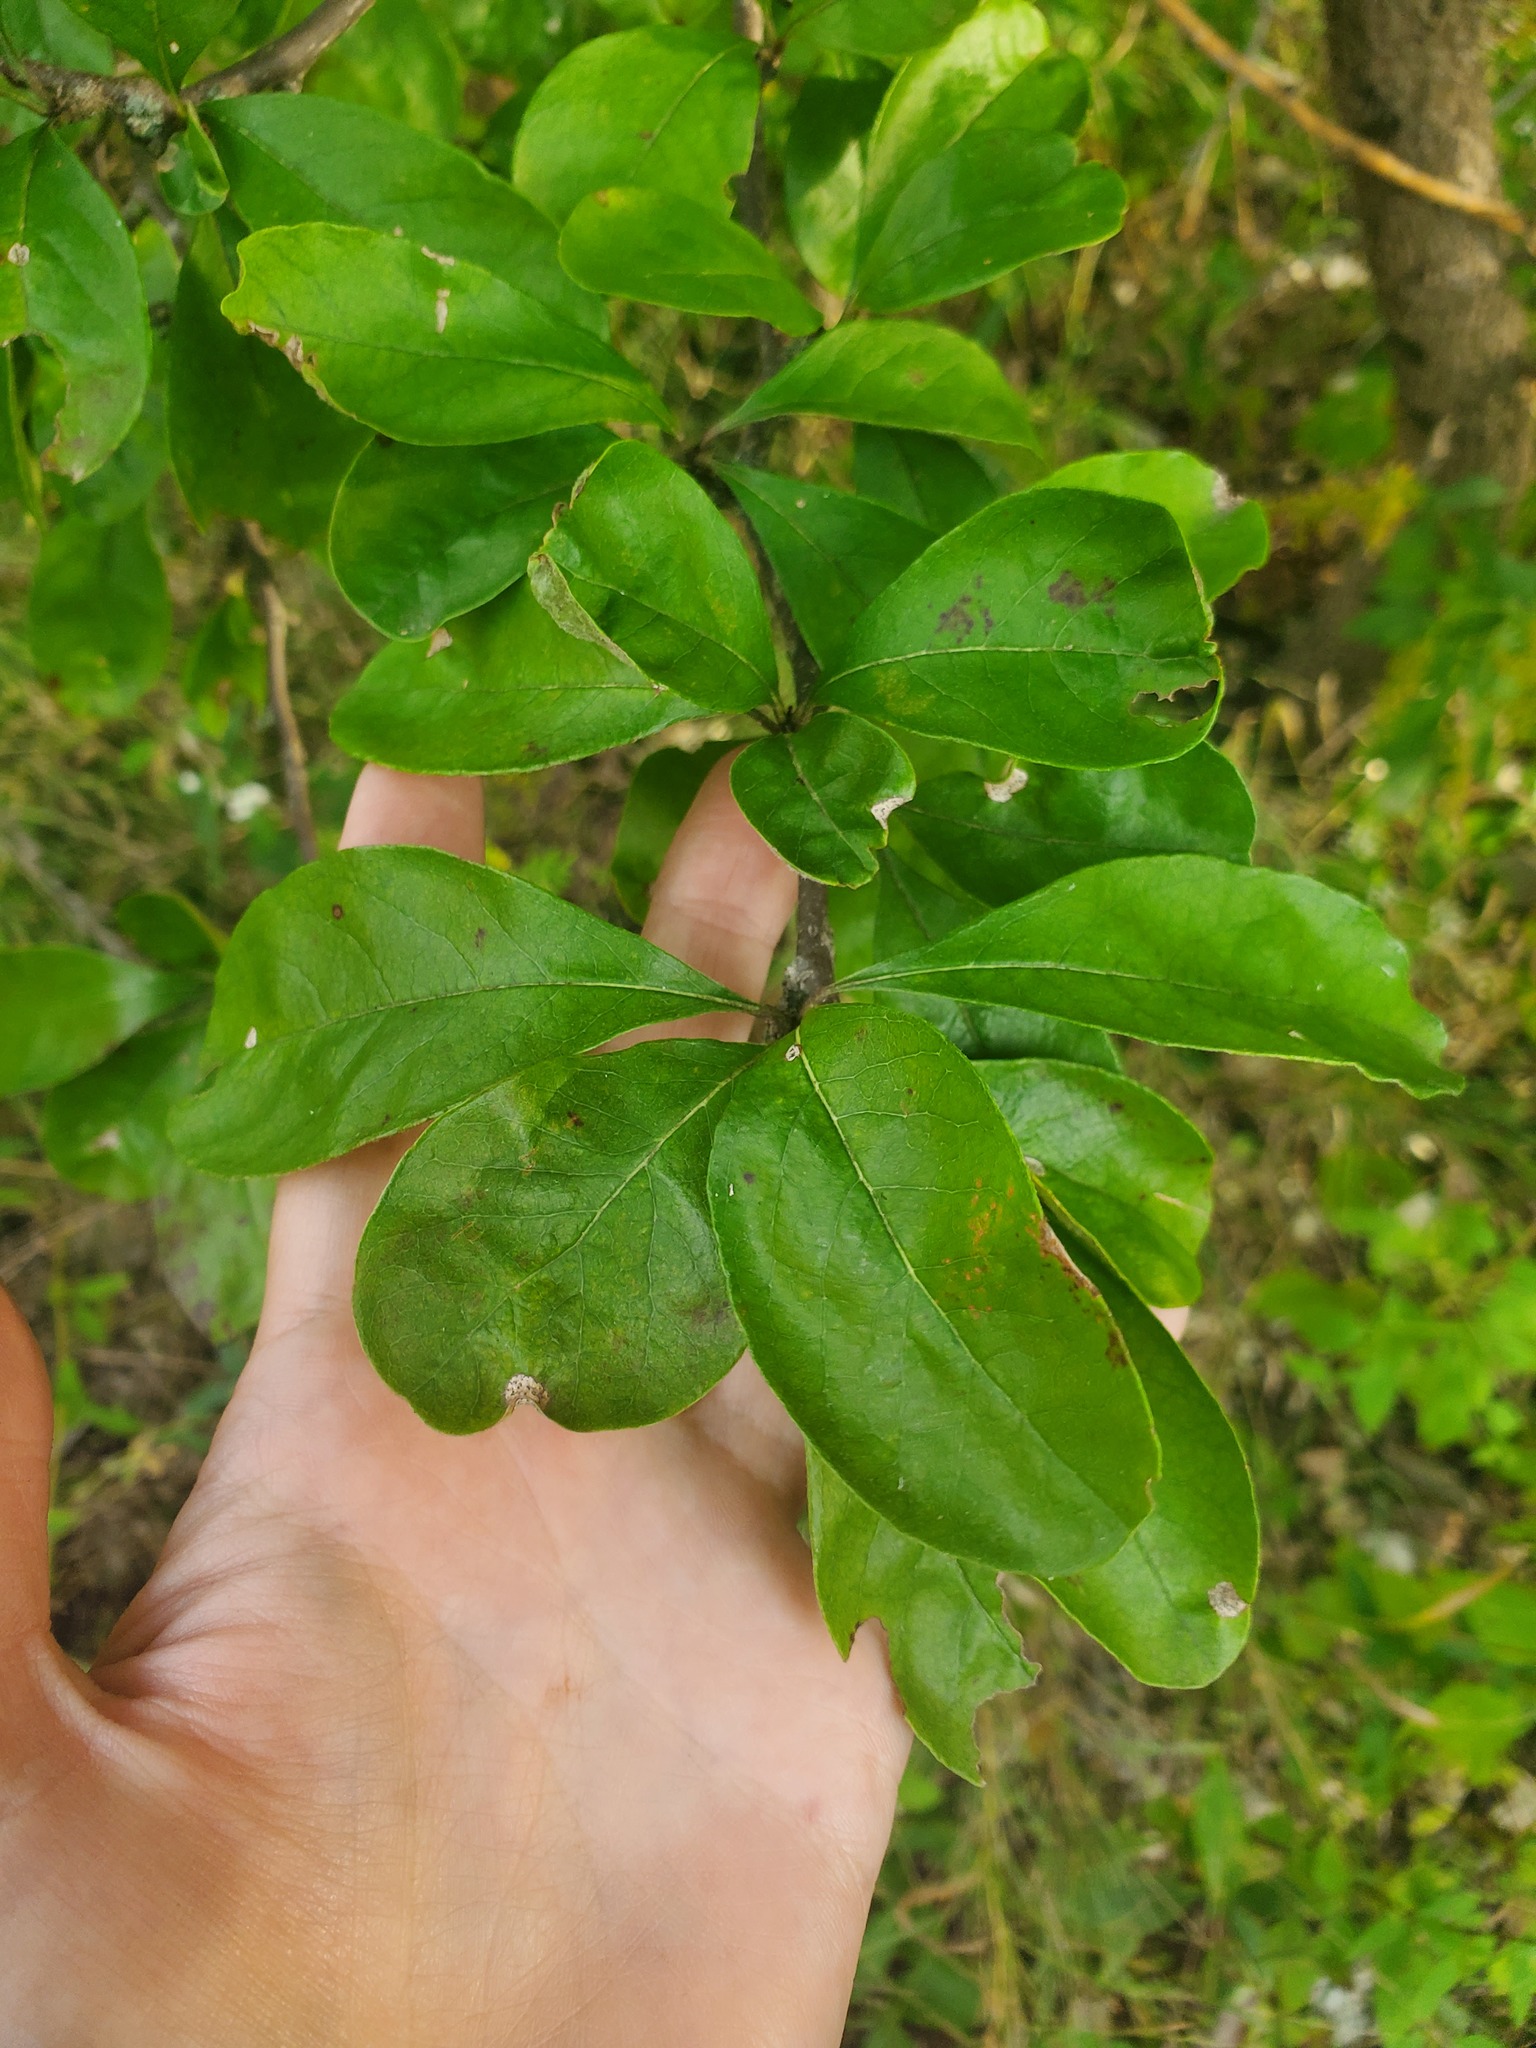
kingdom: Plantae
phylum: Tracheophyta
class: Magnoliopsida
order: Ericales
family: Sapotaceae
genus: Sideroxylon
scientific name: Sideroxylon lanuginosum
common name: Chittamwood
